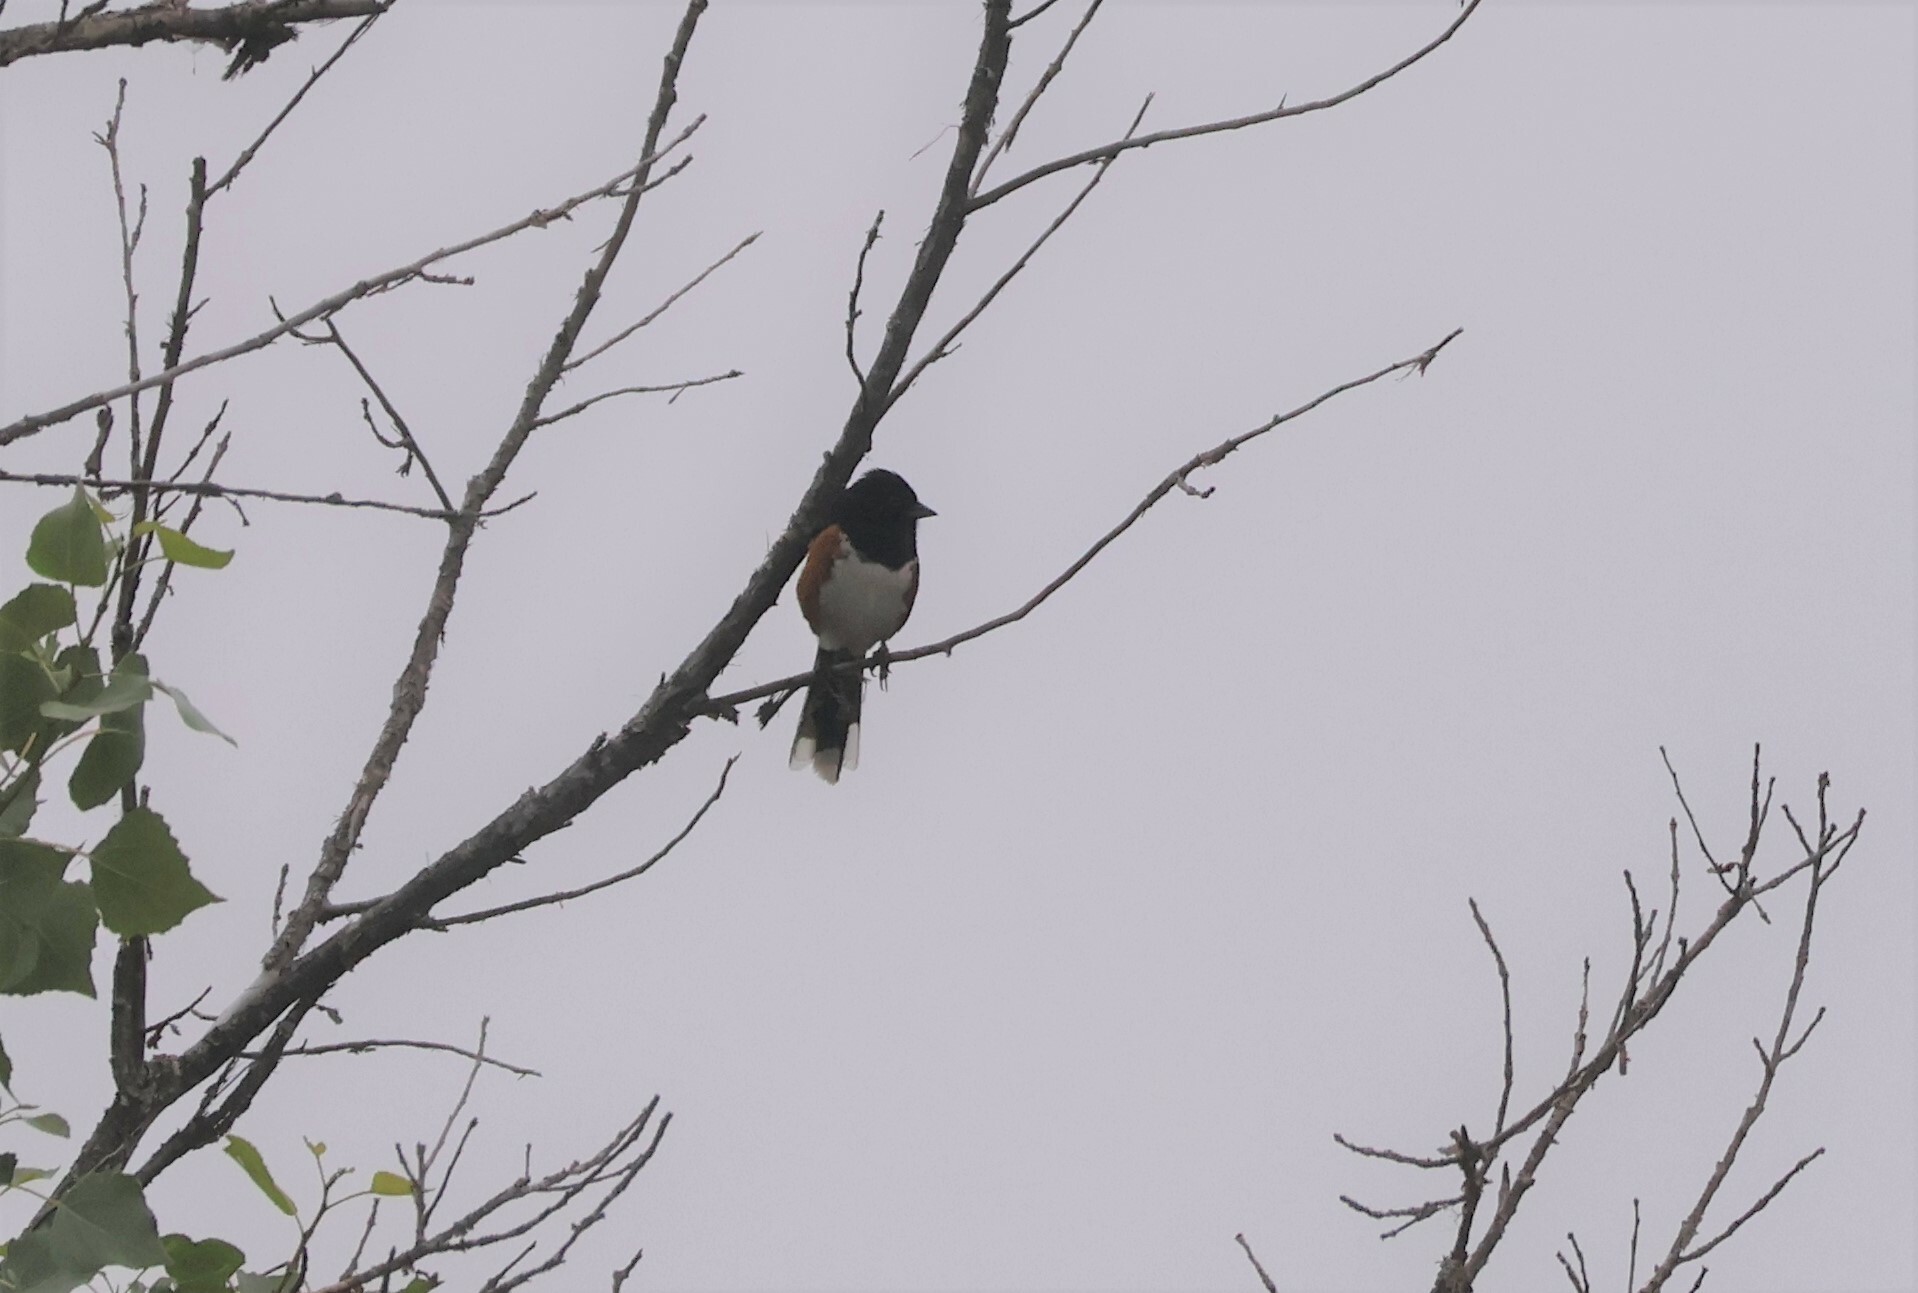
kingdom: Animalia
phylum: Chordata
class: Aves
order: Passeriformes
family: Passerellidae
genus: Pipilo
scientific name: Pipilo maculatus
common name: Spotted towhee
